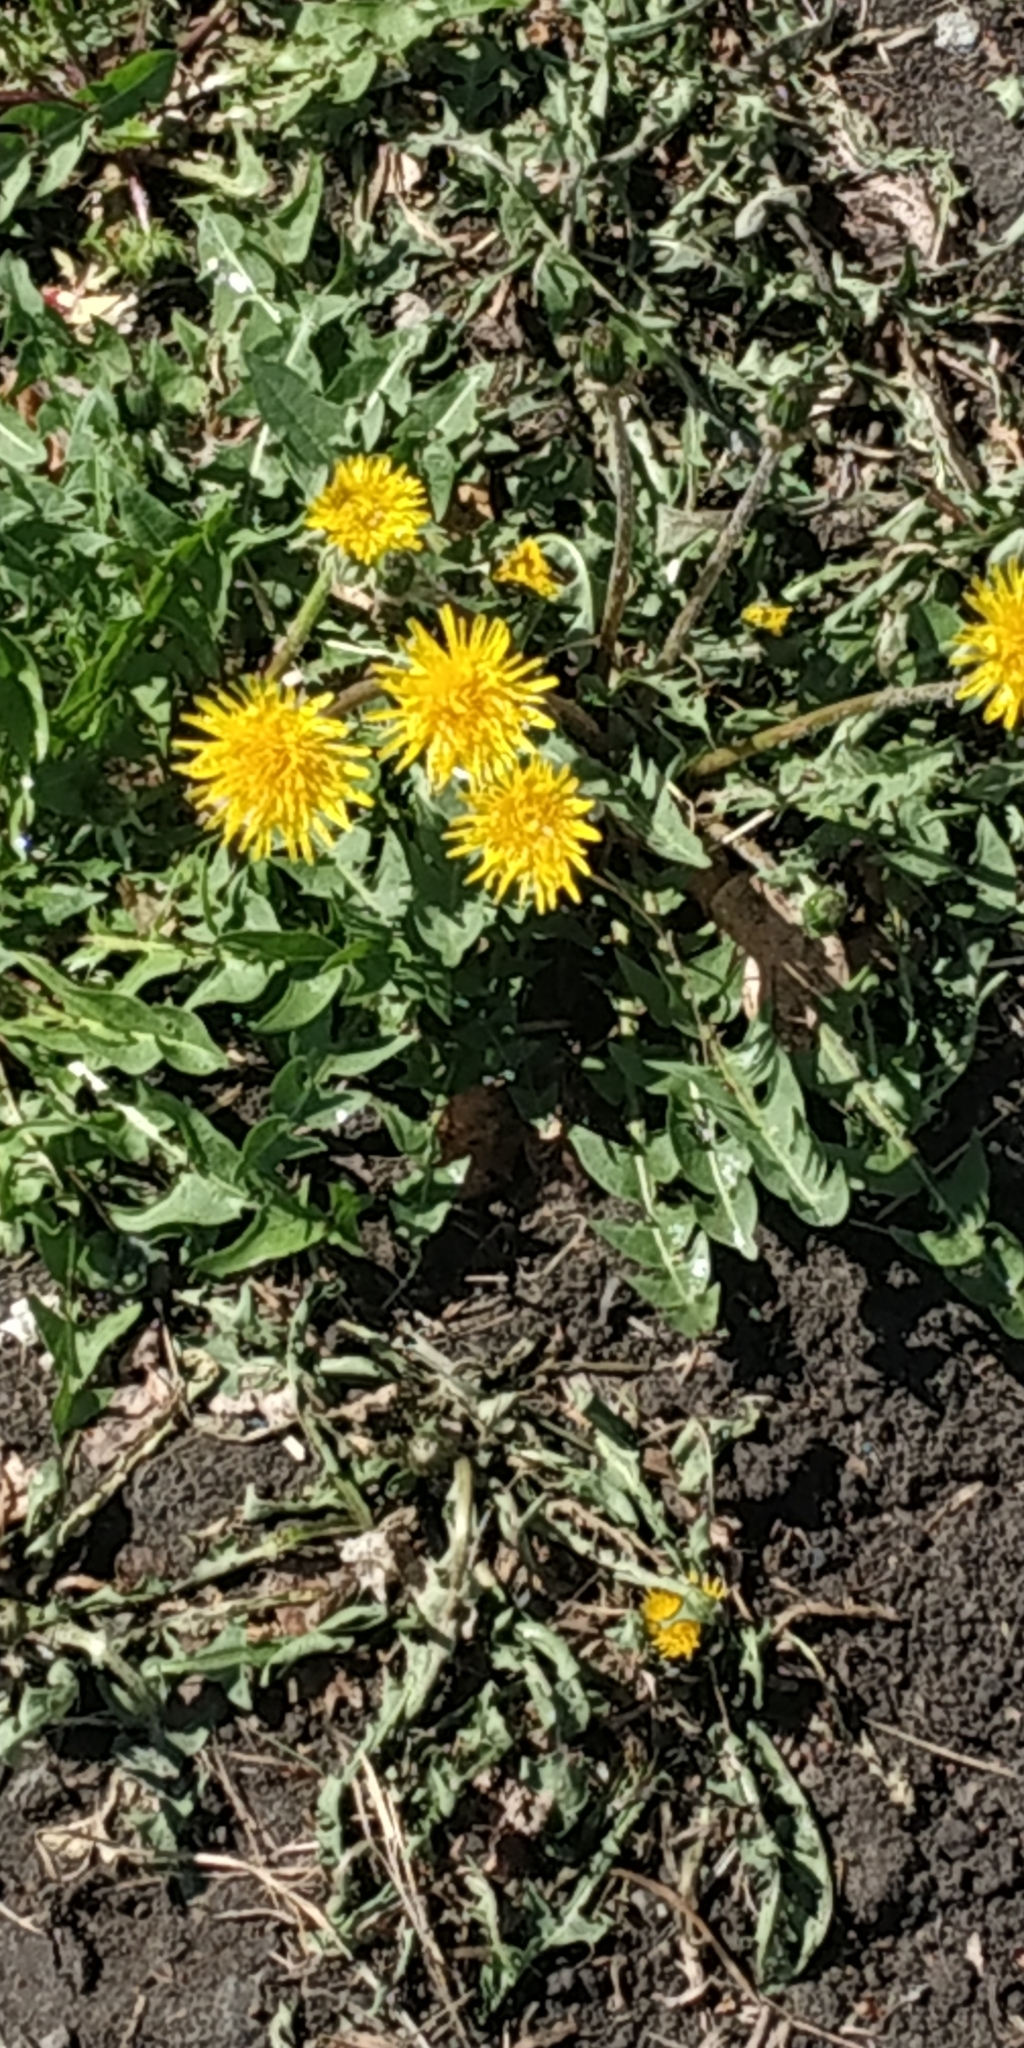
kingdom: Plantae
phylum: Tracheophyta
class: Magnoliopsida
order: Asterales
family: Asteraceae
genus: Taraxacum
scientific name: Taraxacum officinale
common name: Common dandelion
